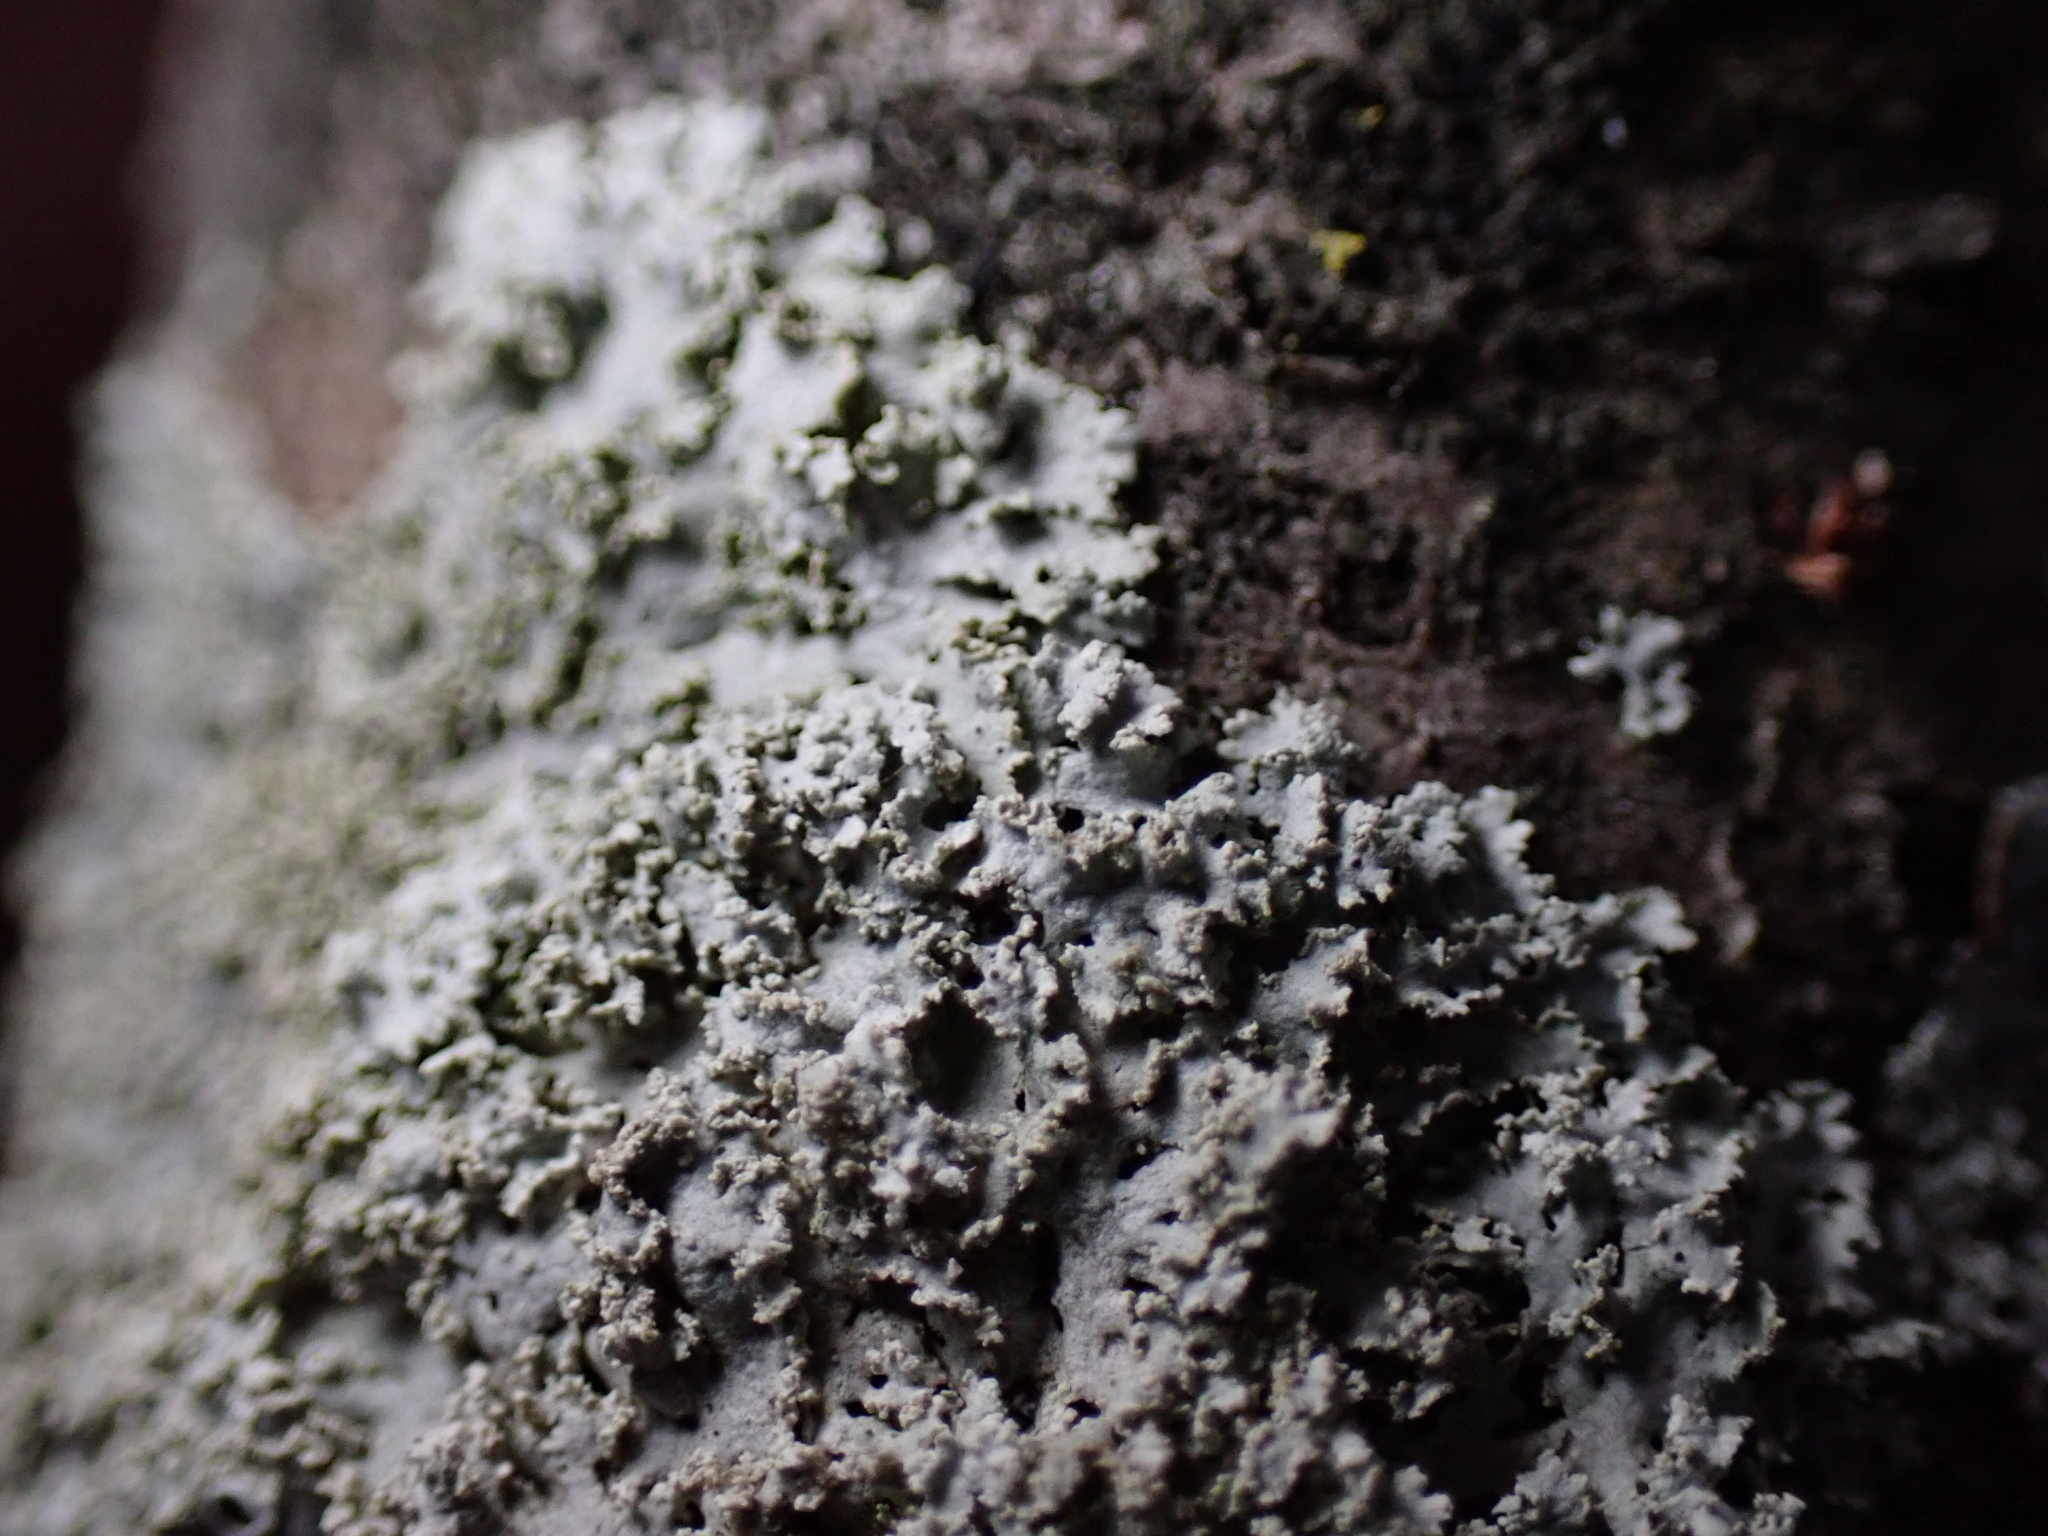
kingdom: Fungi
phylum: Ascomycota
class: Lecanoromycetes
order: Caliciales
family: Physciaceae
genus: Physcia
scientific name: Physcia millegrana
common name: Rosette lichen
